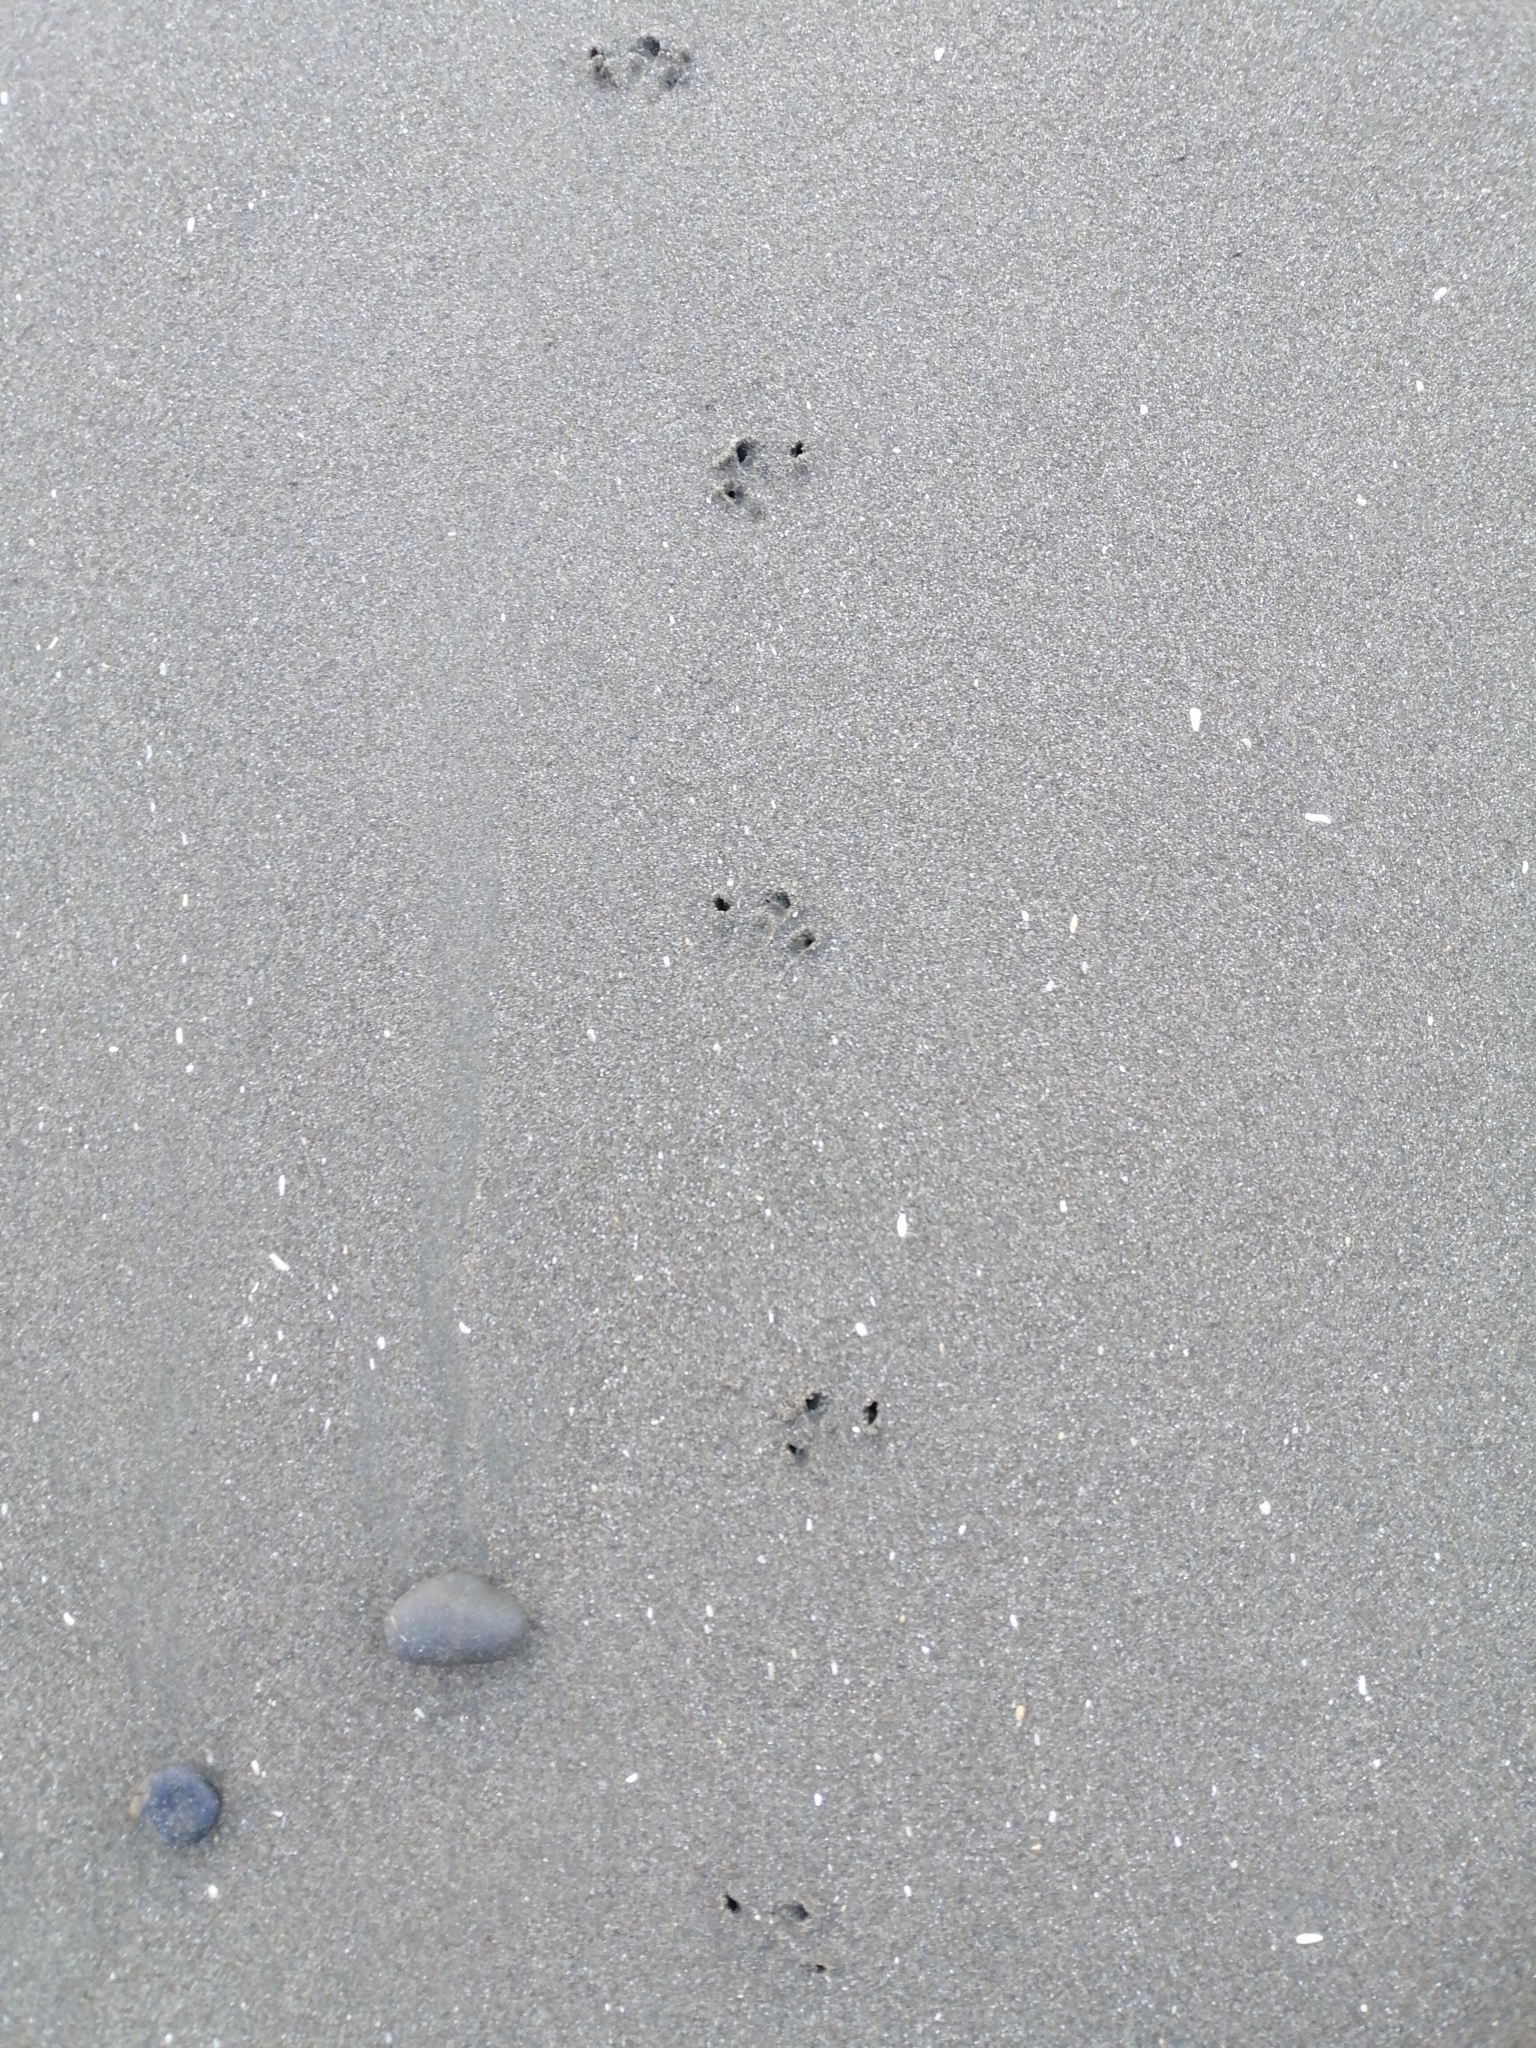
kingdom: Animalia
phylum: Chordata
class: Aves
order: Sphenisciformes
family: Spheniscidae
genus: Eudyptula
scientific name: Eudyptula minor
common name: Little penguin
